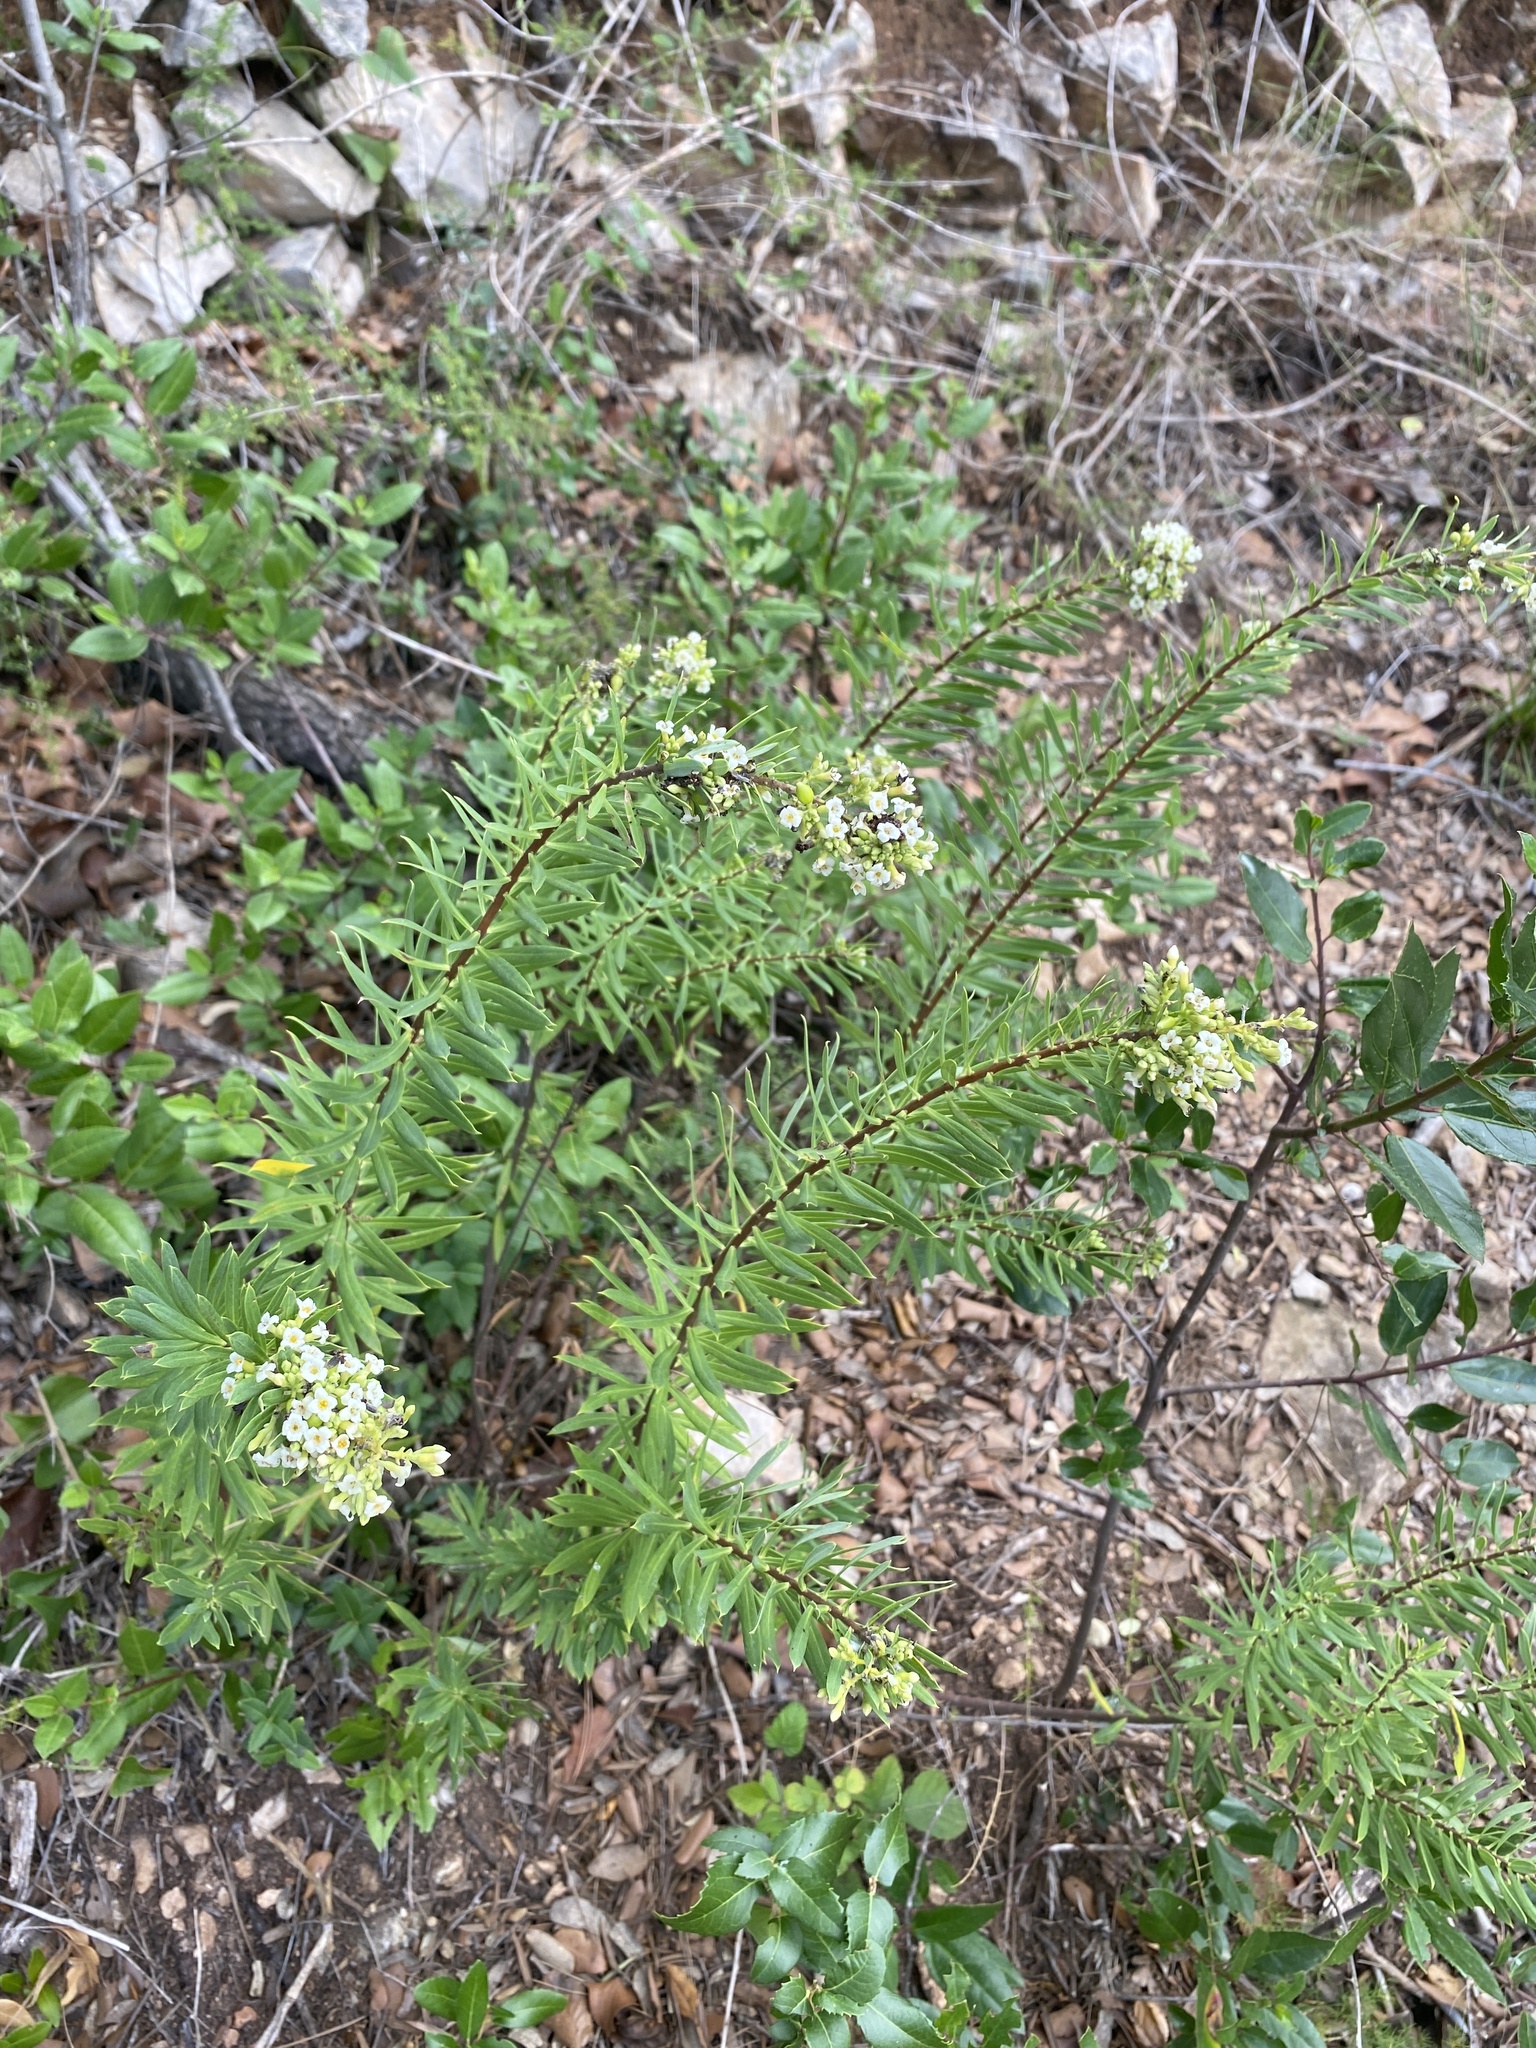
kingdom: Plantae
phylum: Tracheophyta
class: Magnoliopsida
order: Malvales
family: Thymelaeaceae
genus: Daphne
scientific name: Daphne gnidium
